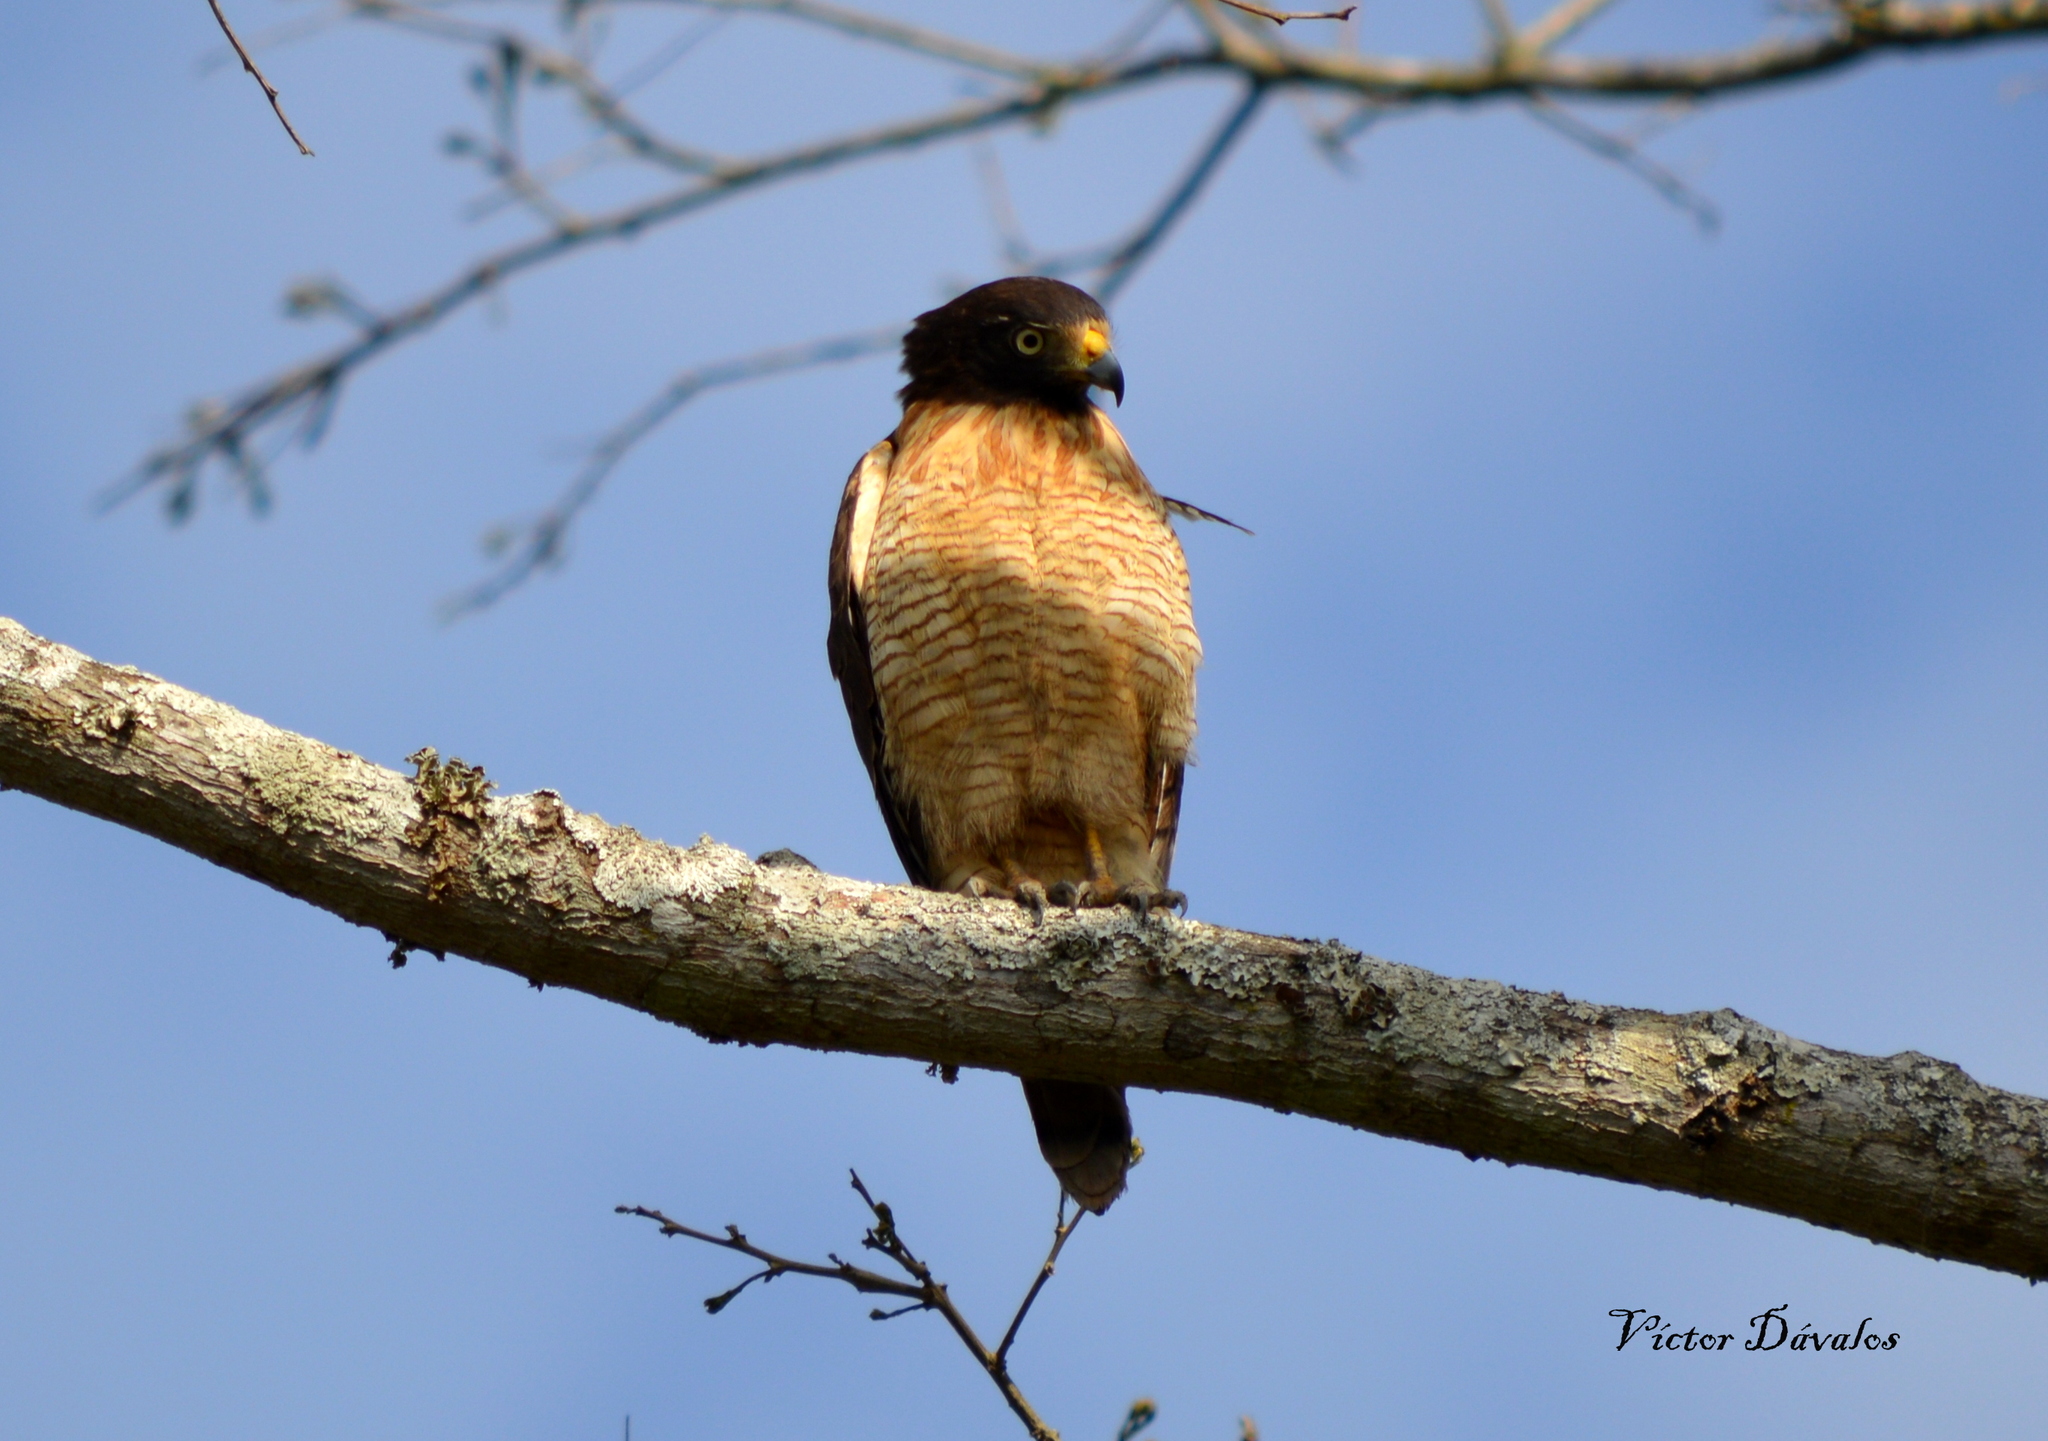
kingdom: Animalia
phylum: Chordata
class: Aves
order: Accipitriformes
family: Accipitridae
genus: Rupornis
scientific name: Rupornis magnirostris
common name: Roadside hawk
